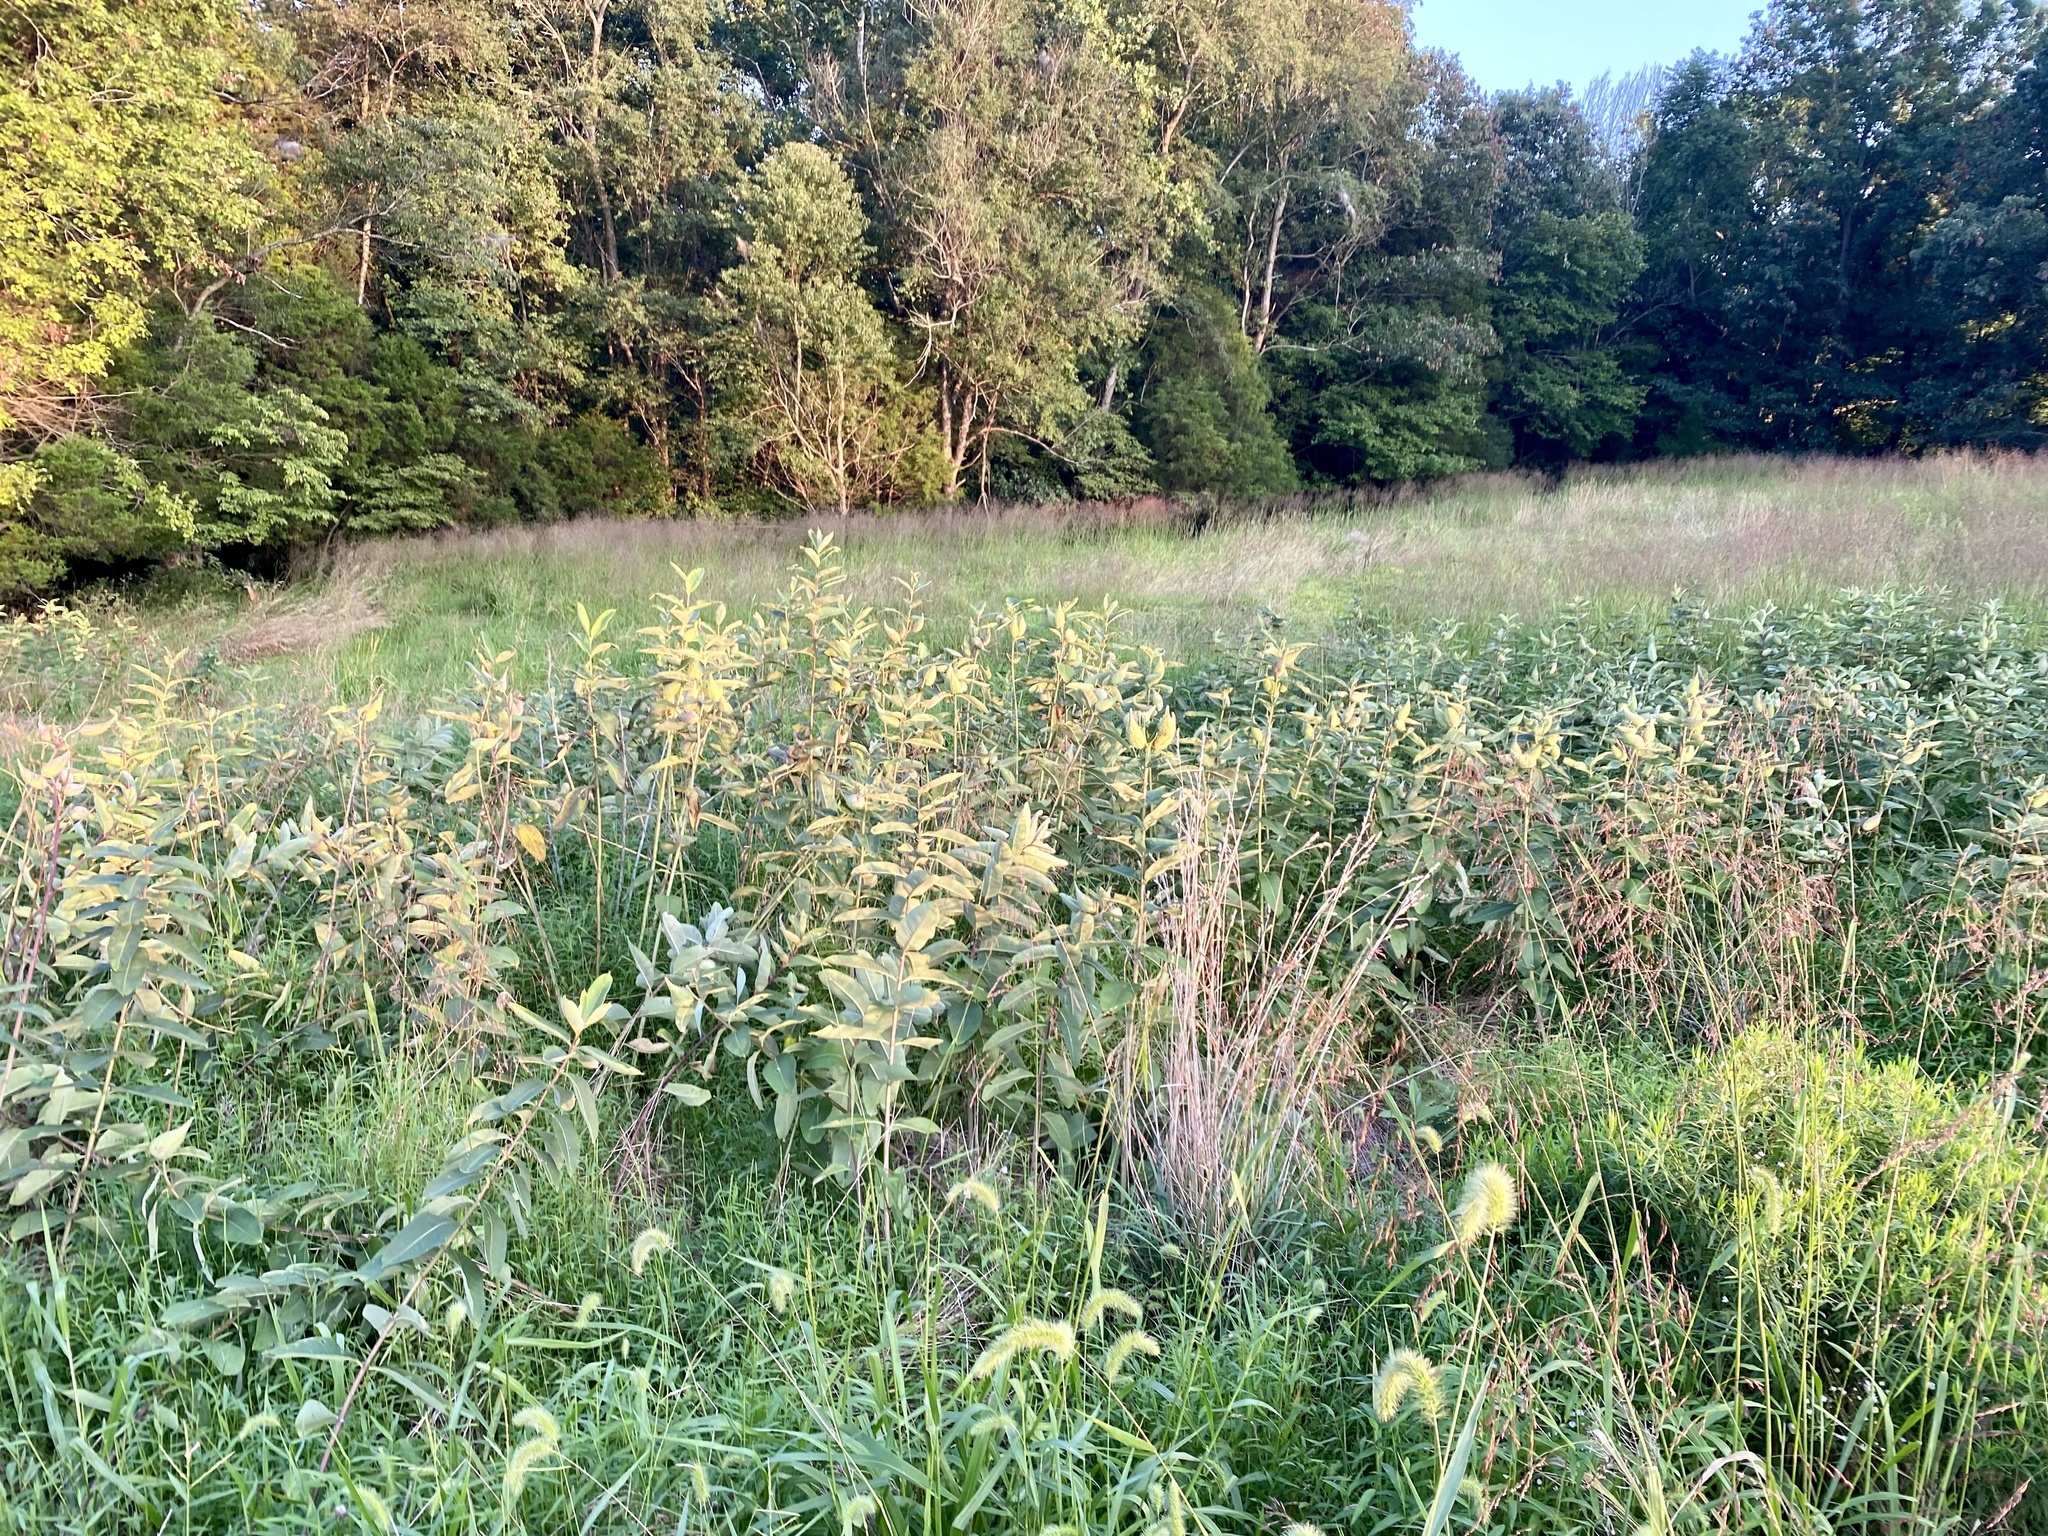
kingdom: Plantae
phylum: Tracheophyta
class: Magnoliopsida
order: Gentianales
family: Apocynaceae
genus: Asclepias
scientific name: Asclepias syriaca
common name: Common milkweed
